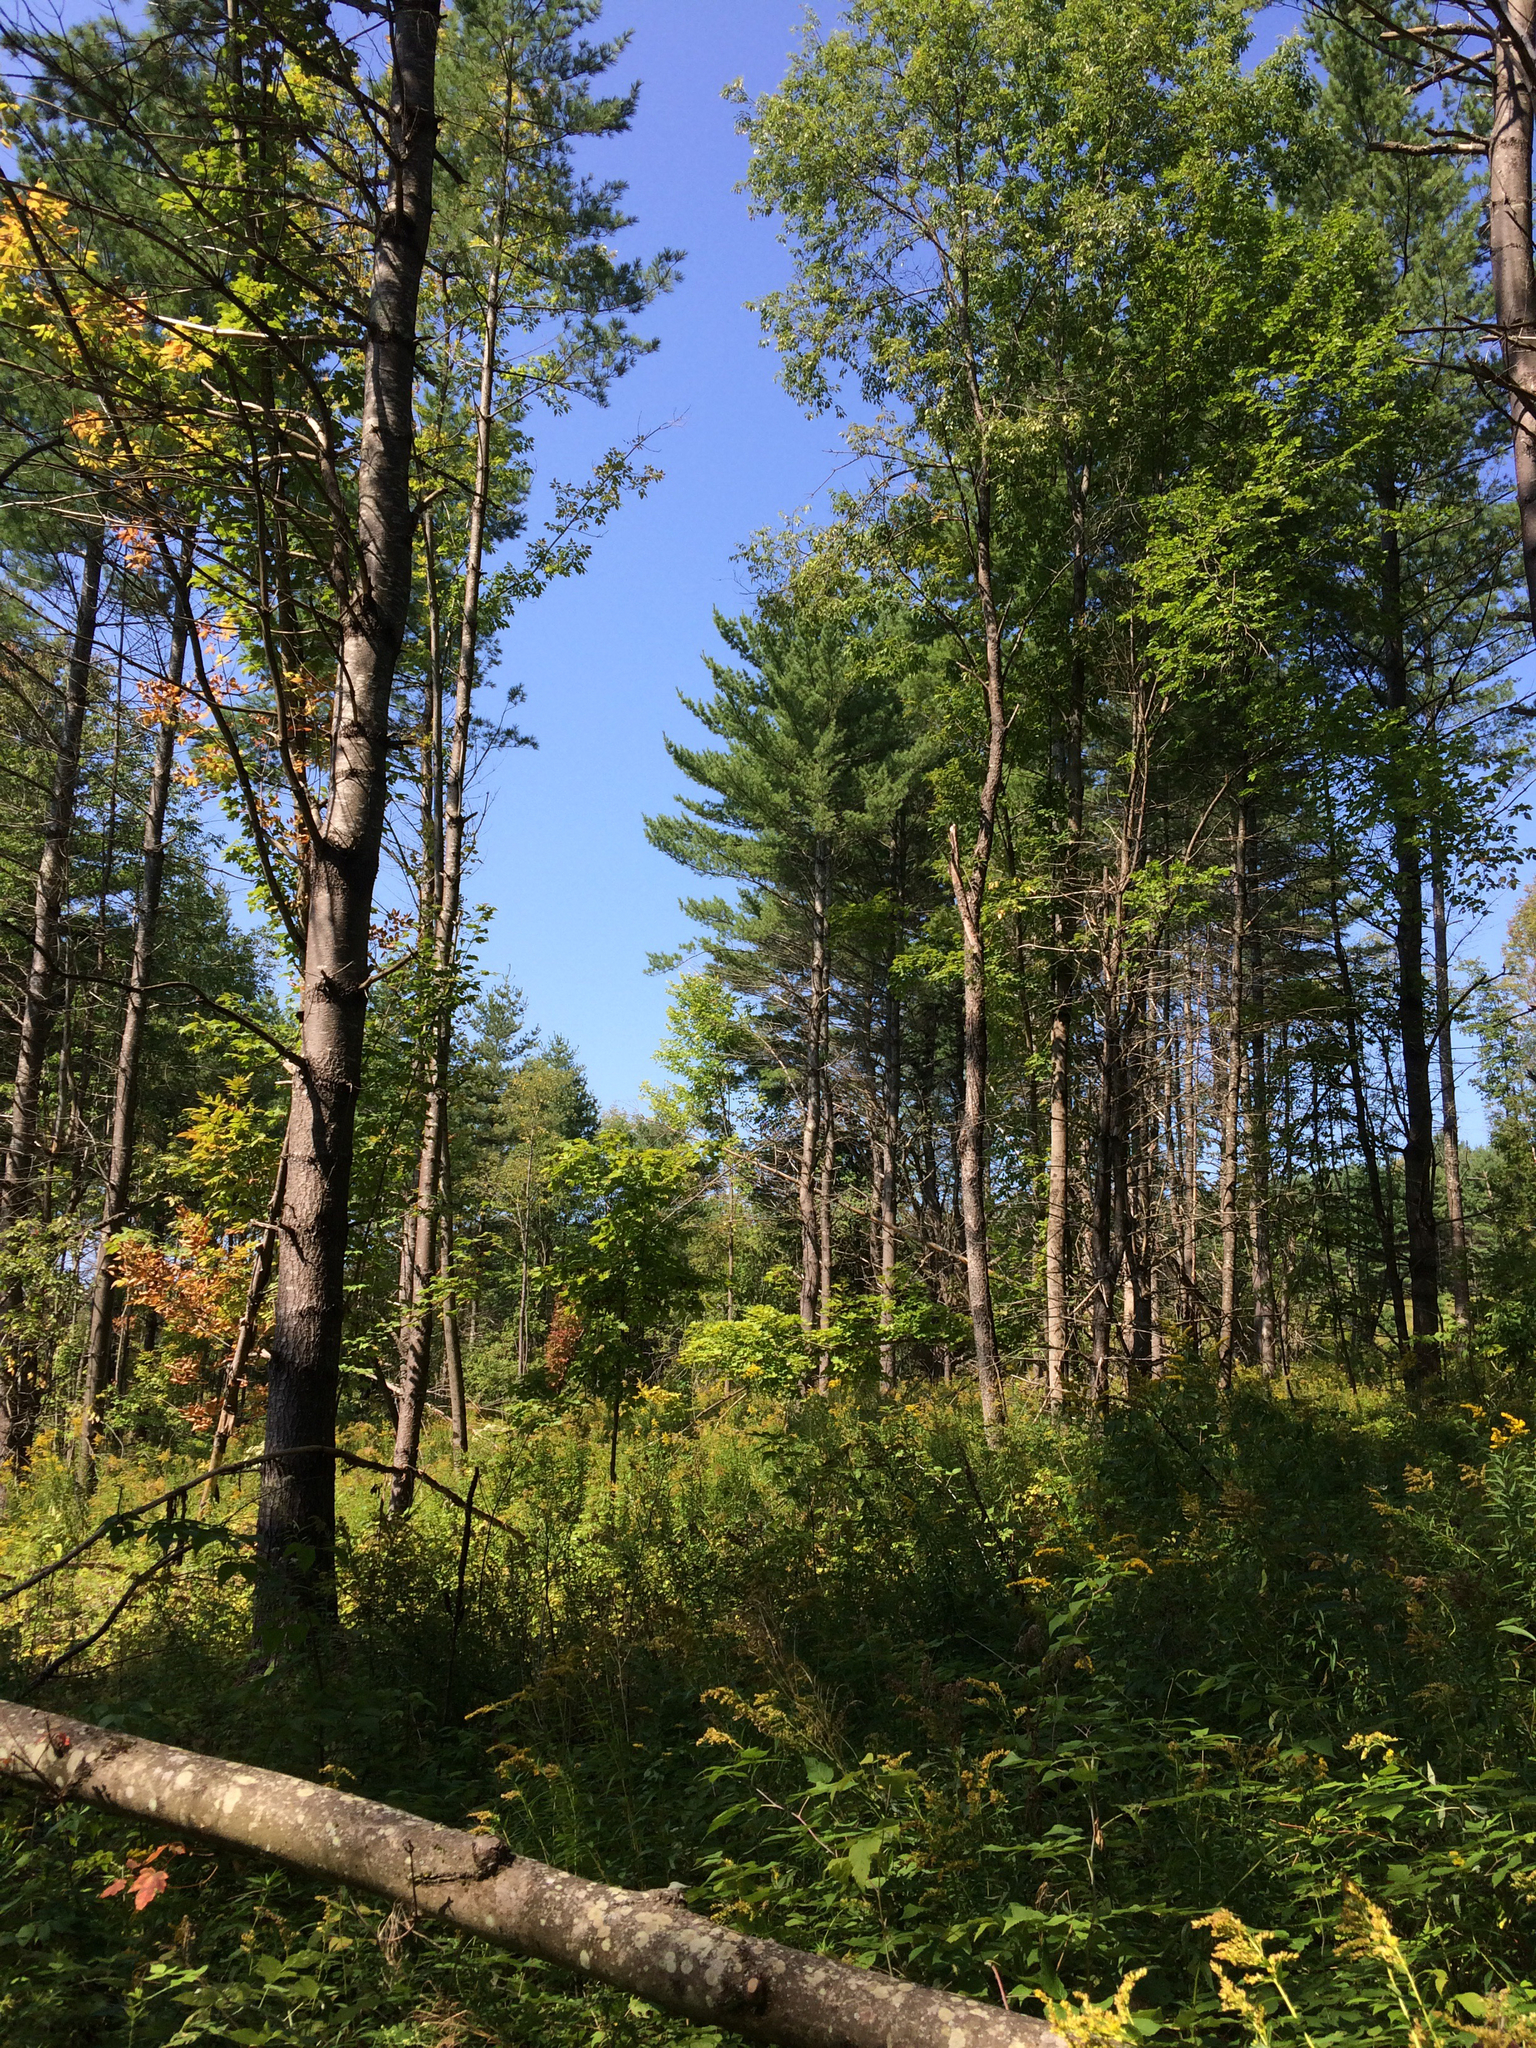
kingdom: Plantae
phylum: Tracheophyta
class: Pinopsida
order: Pinales
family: Pinaceae
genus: Pinus
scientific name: Pinus strobus
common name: Weymouth pine
